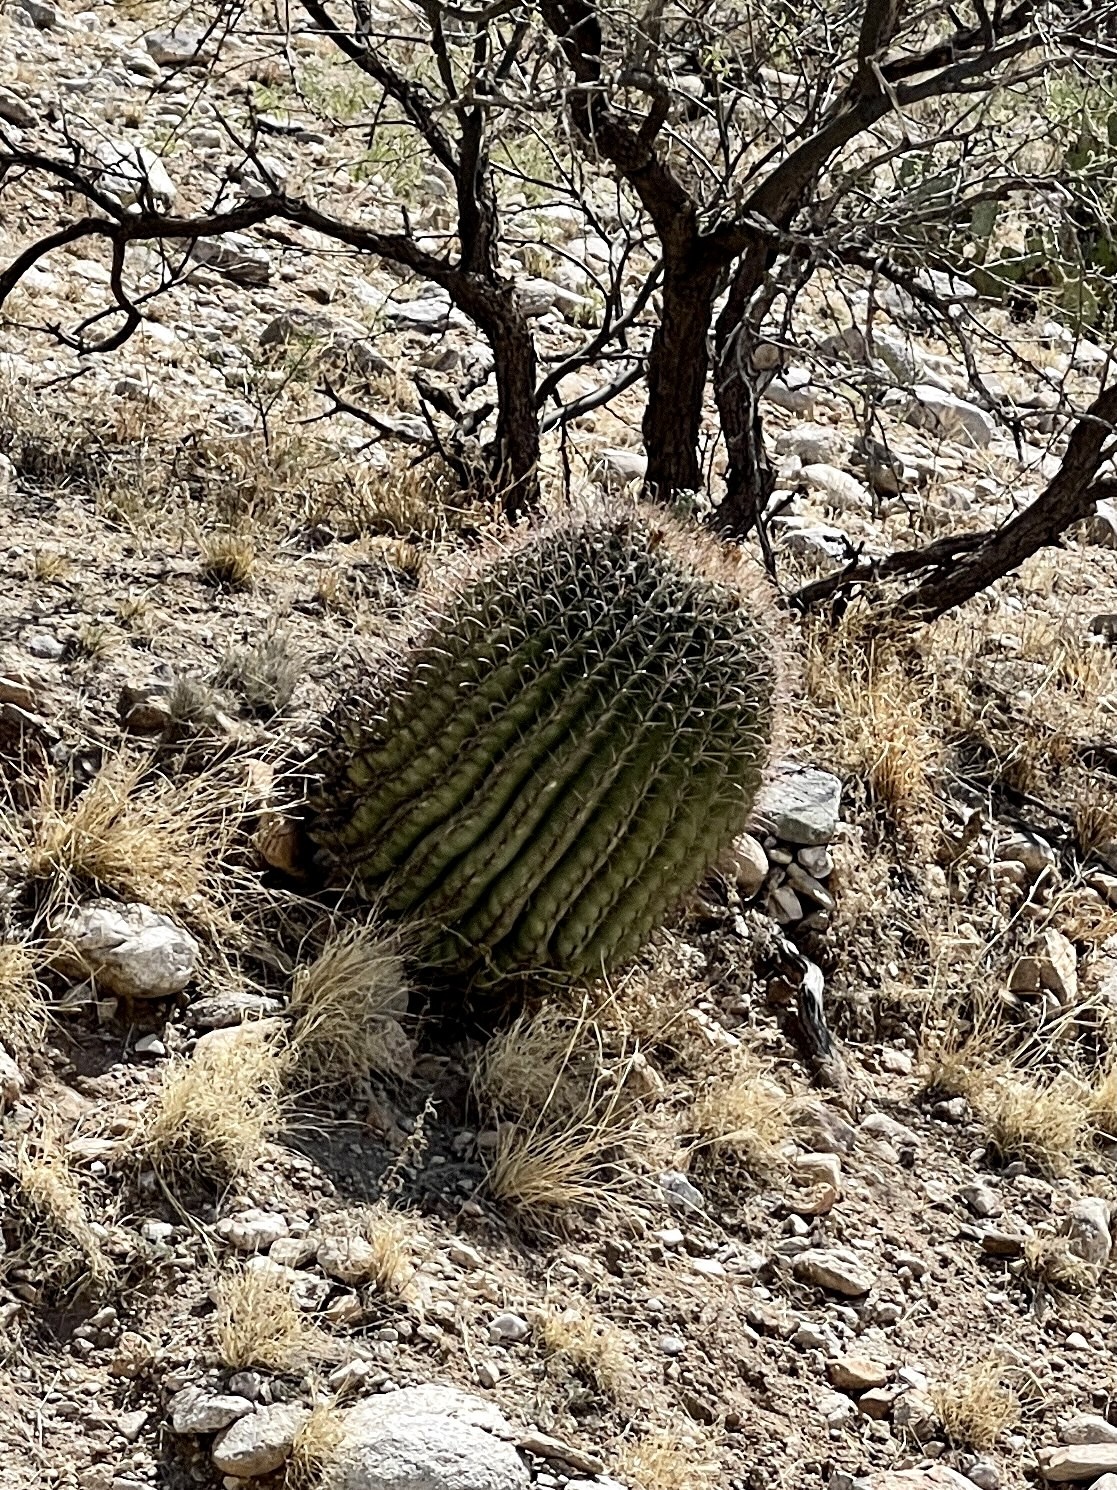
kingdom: Plantae
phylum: Tracheophyta
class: Magnoliopsida
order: Caryophyllales
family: Cactaceae
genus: Ferocactus
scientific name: Ferocactus wislizeni
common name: Candy barrel cactus
